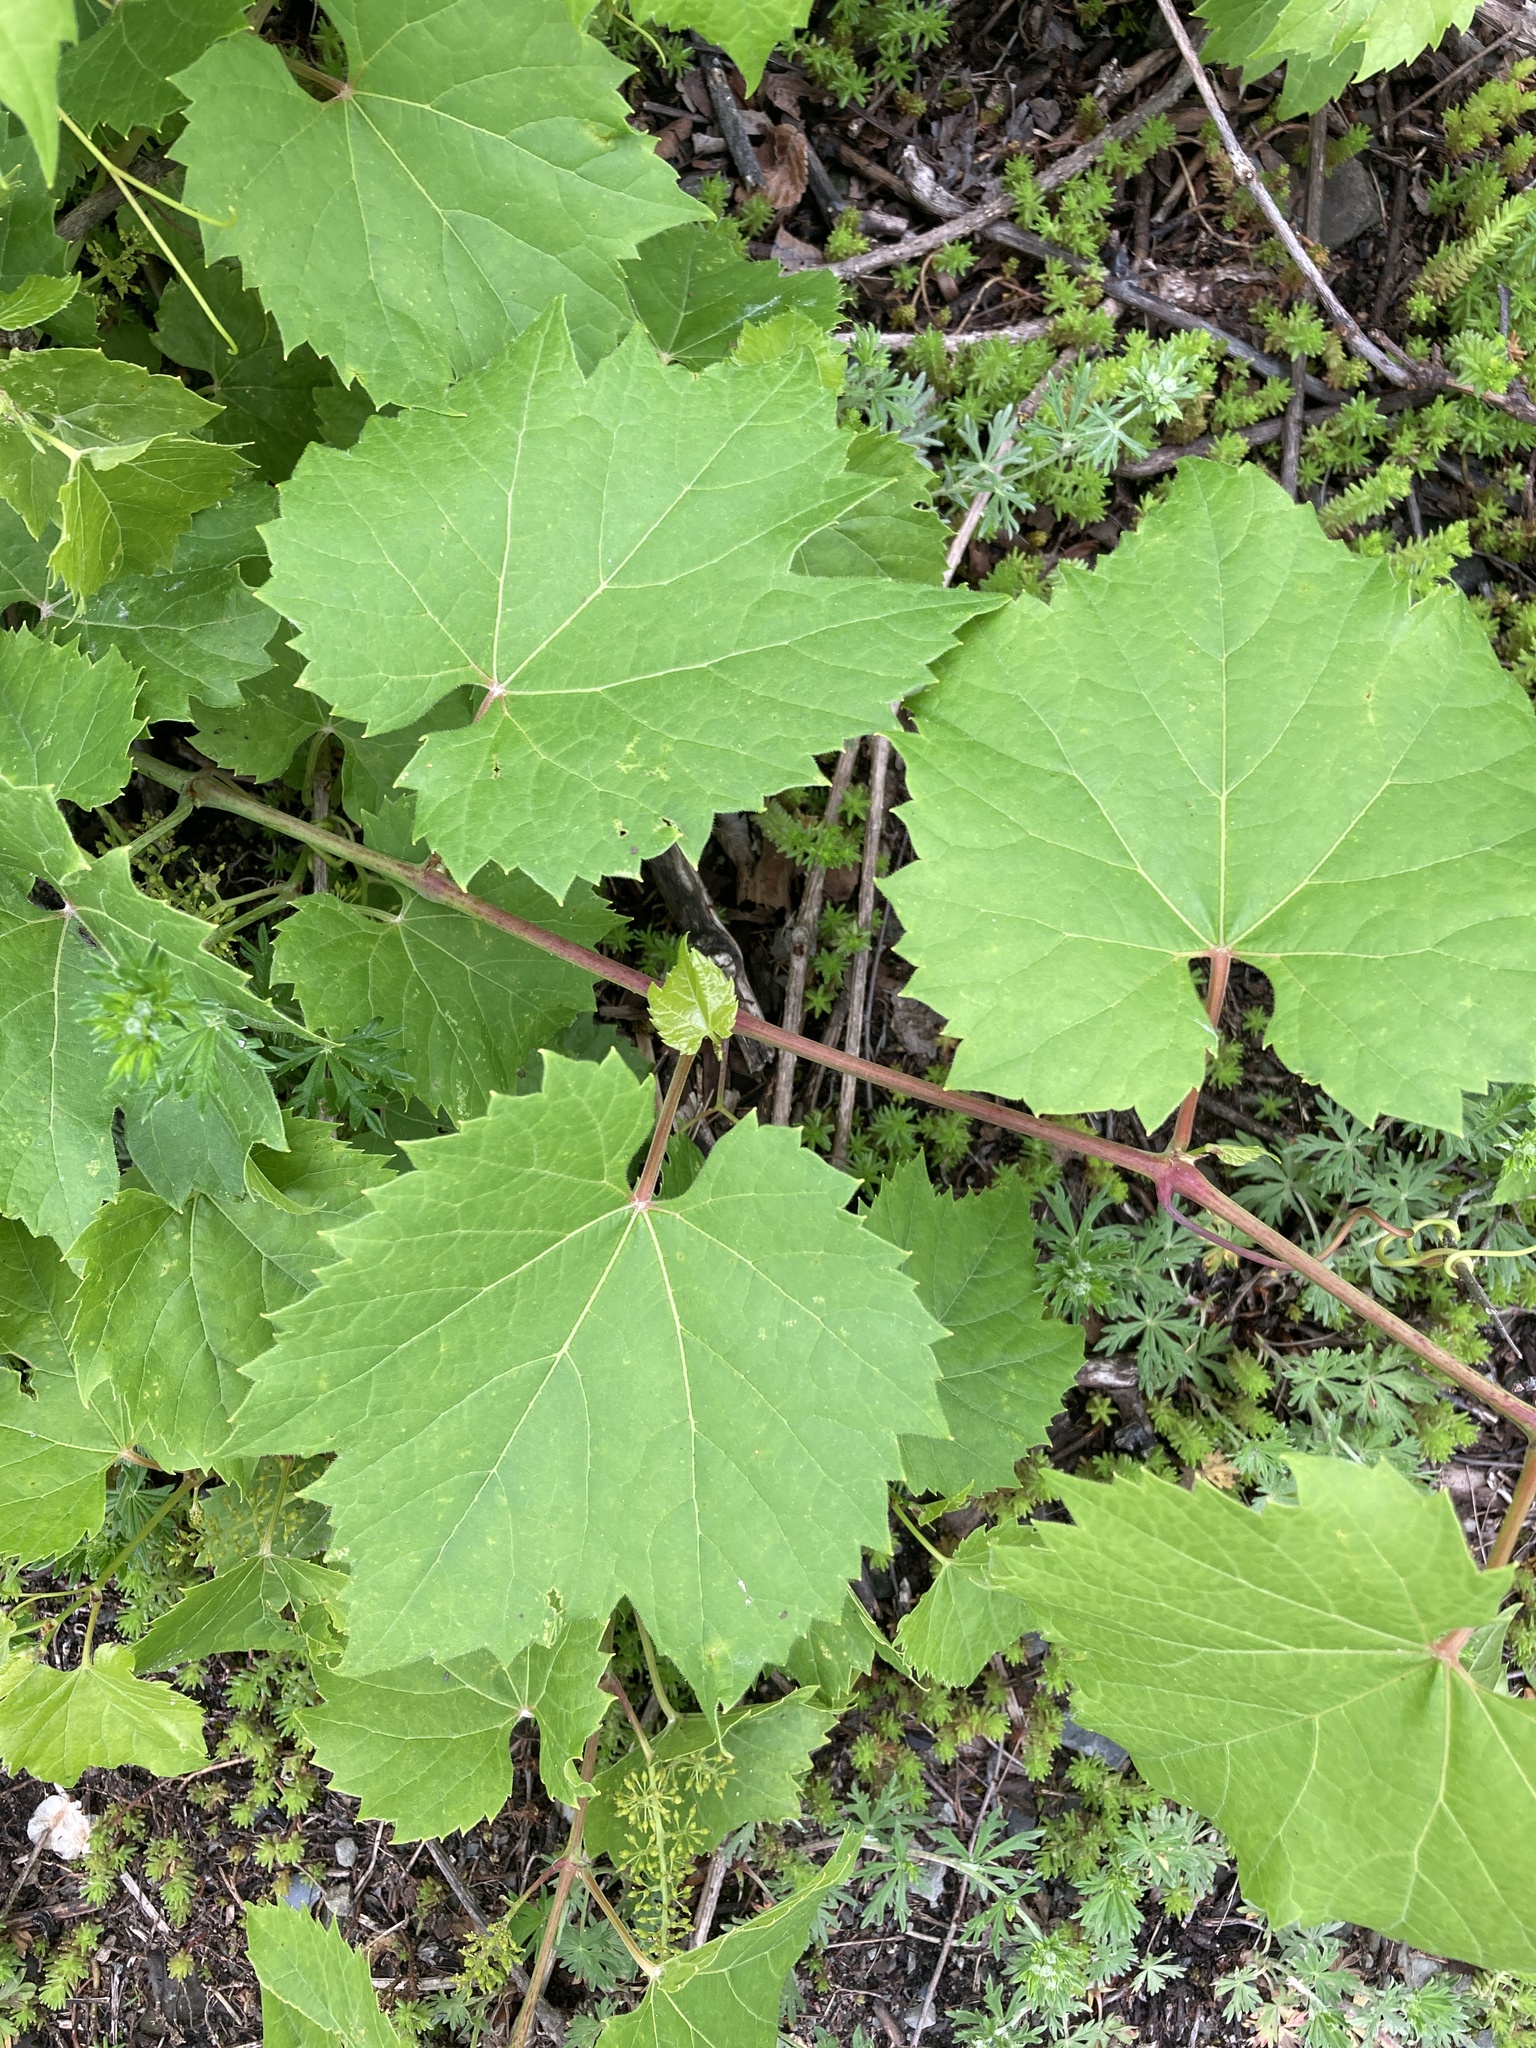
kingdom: Plantae
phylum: Tracheophyta
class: Magnoliopsida
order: Vitales
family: Vitaceae
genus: Vitis
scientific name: Vitis riparia
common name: Frost grape
